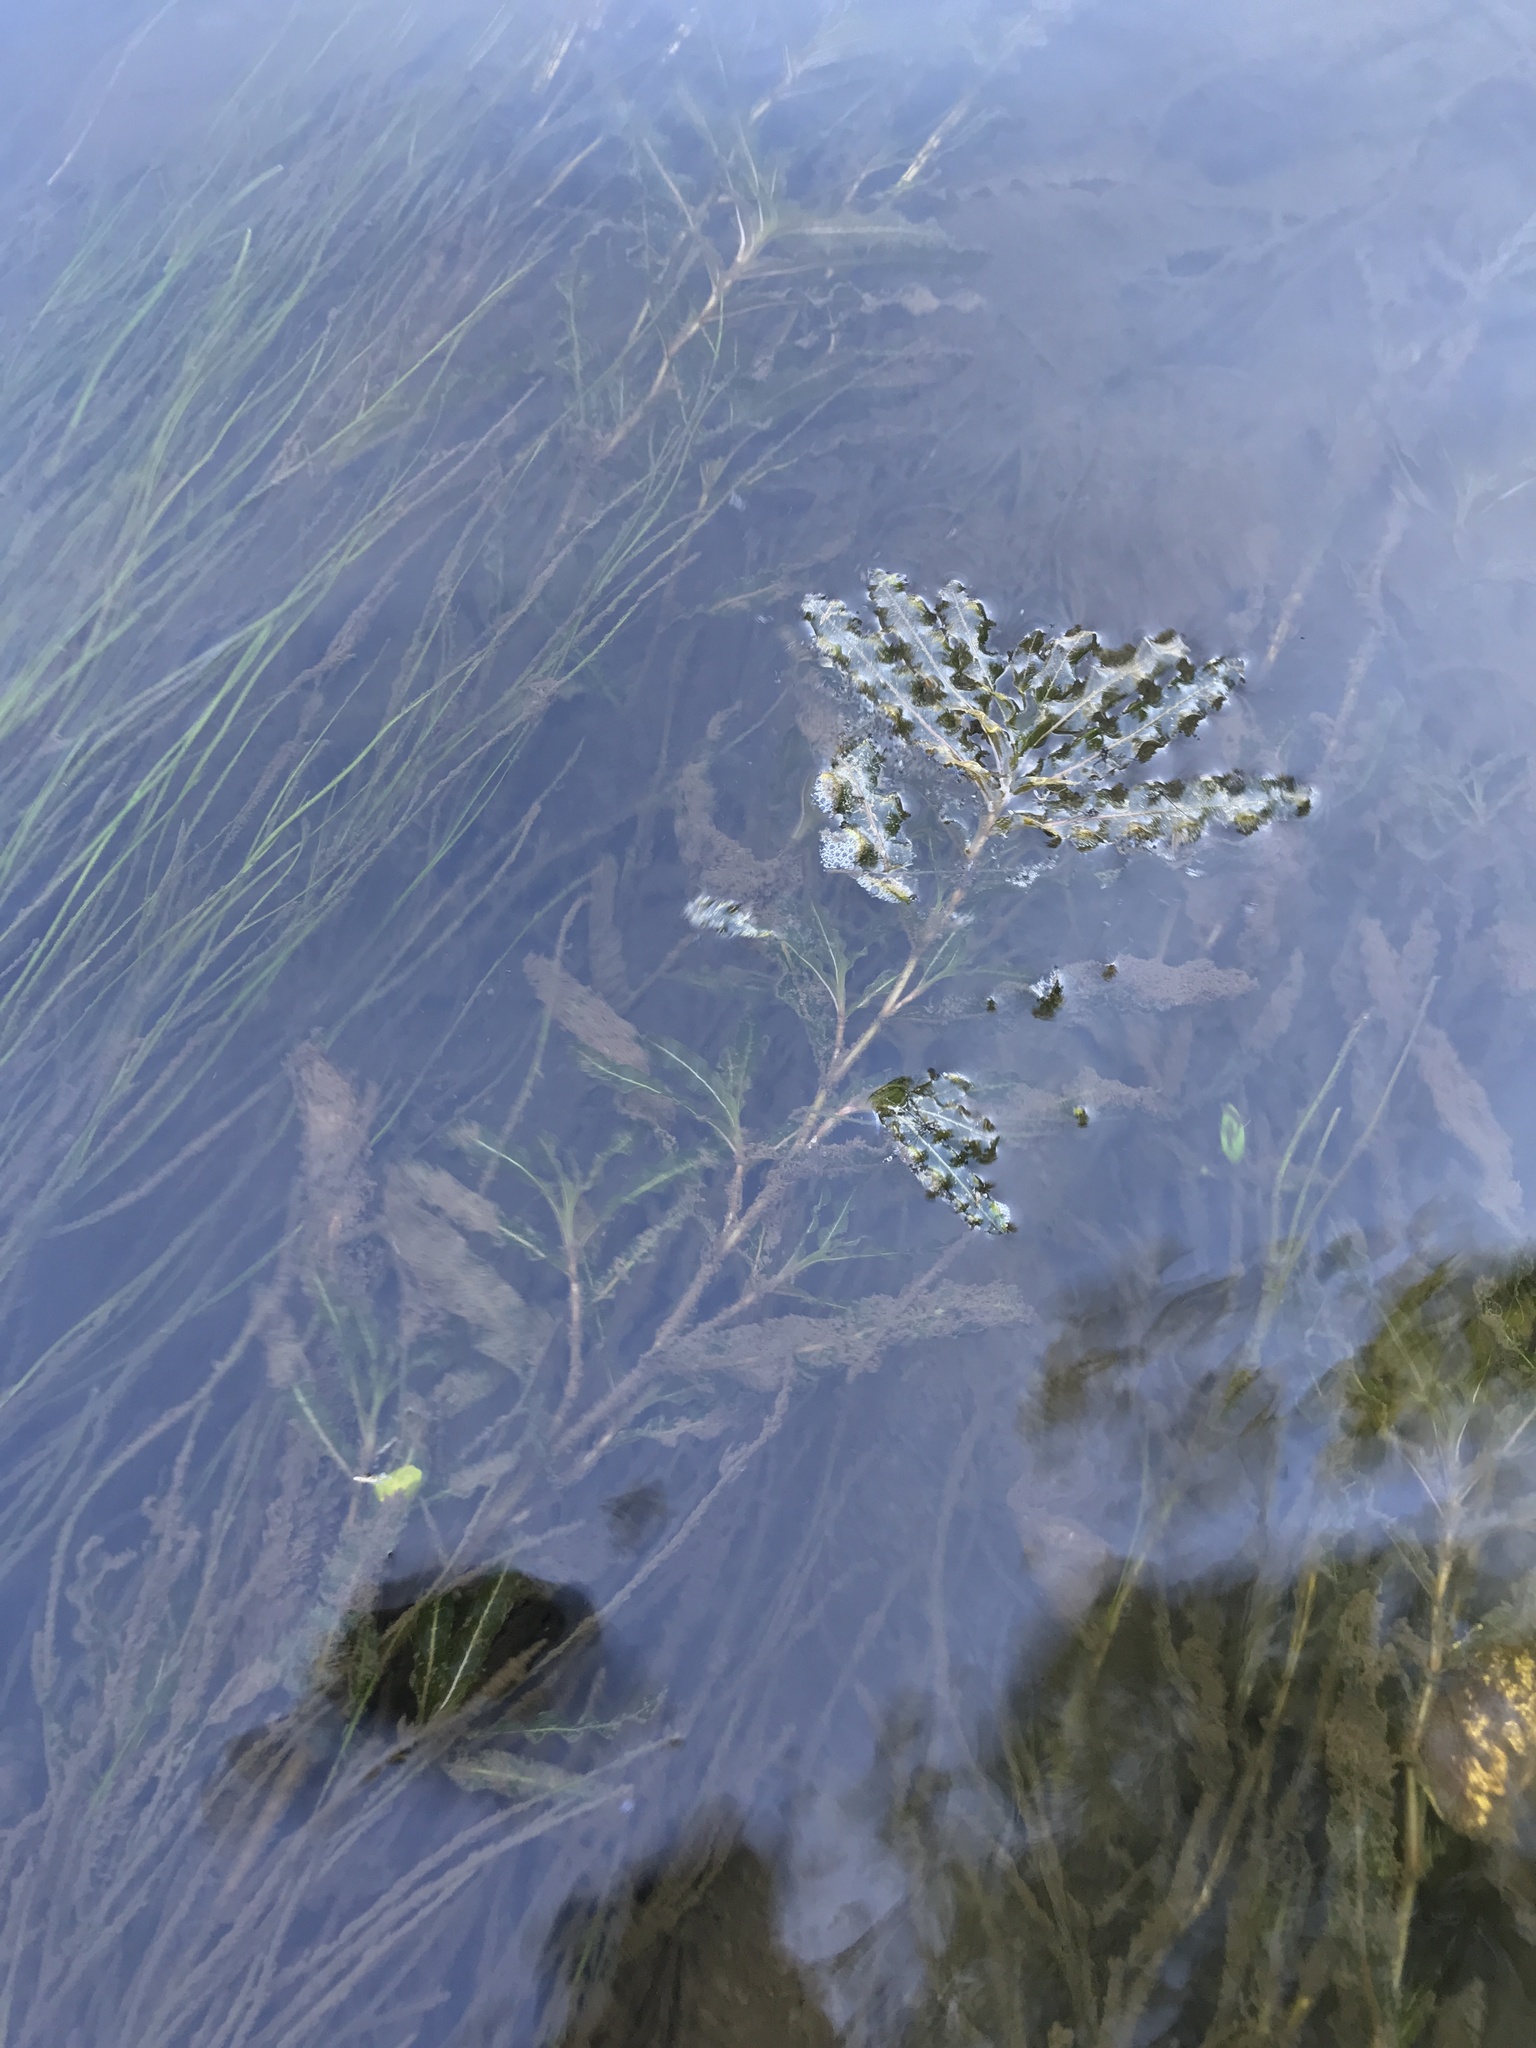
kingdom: Plantae
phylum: Tracheophyta
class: Liliopsida
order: Alismatales
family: Potamogetonaceae
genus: Potamogeton
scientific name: Potamogeton crispus
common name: Curled pondweed
